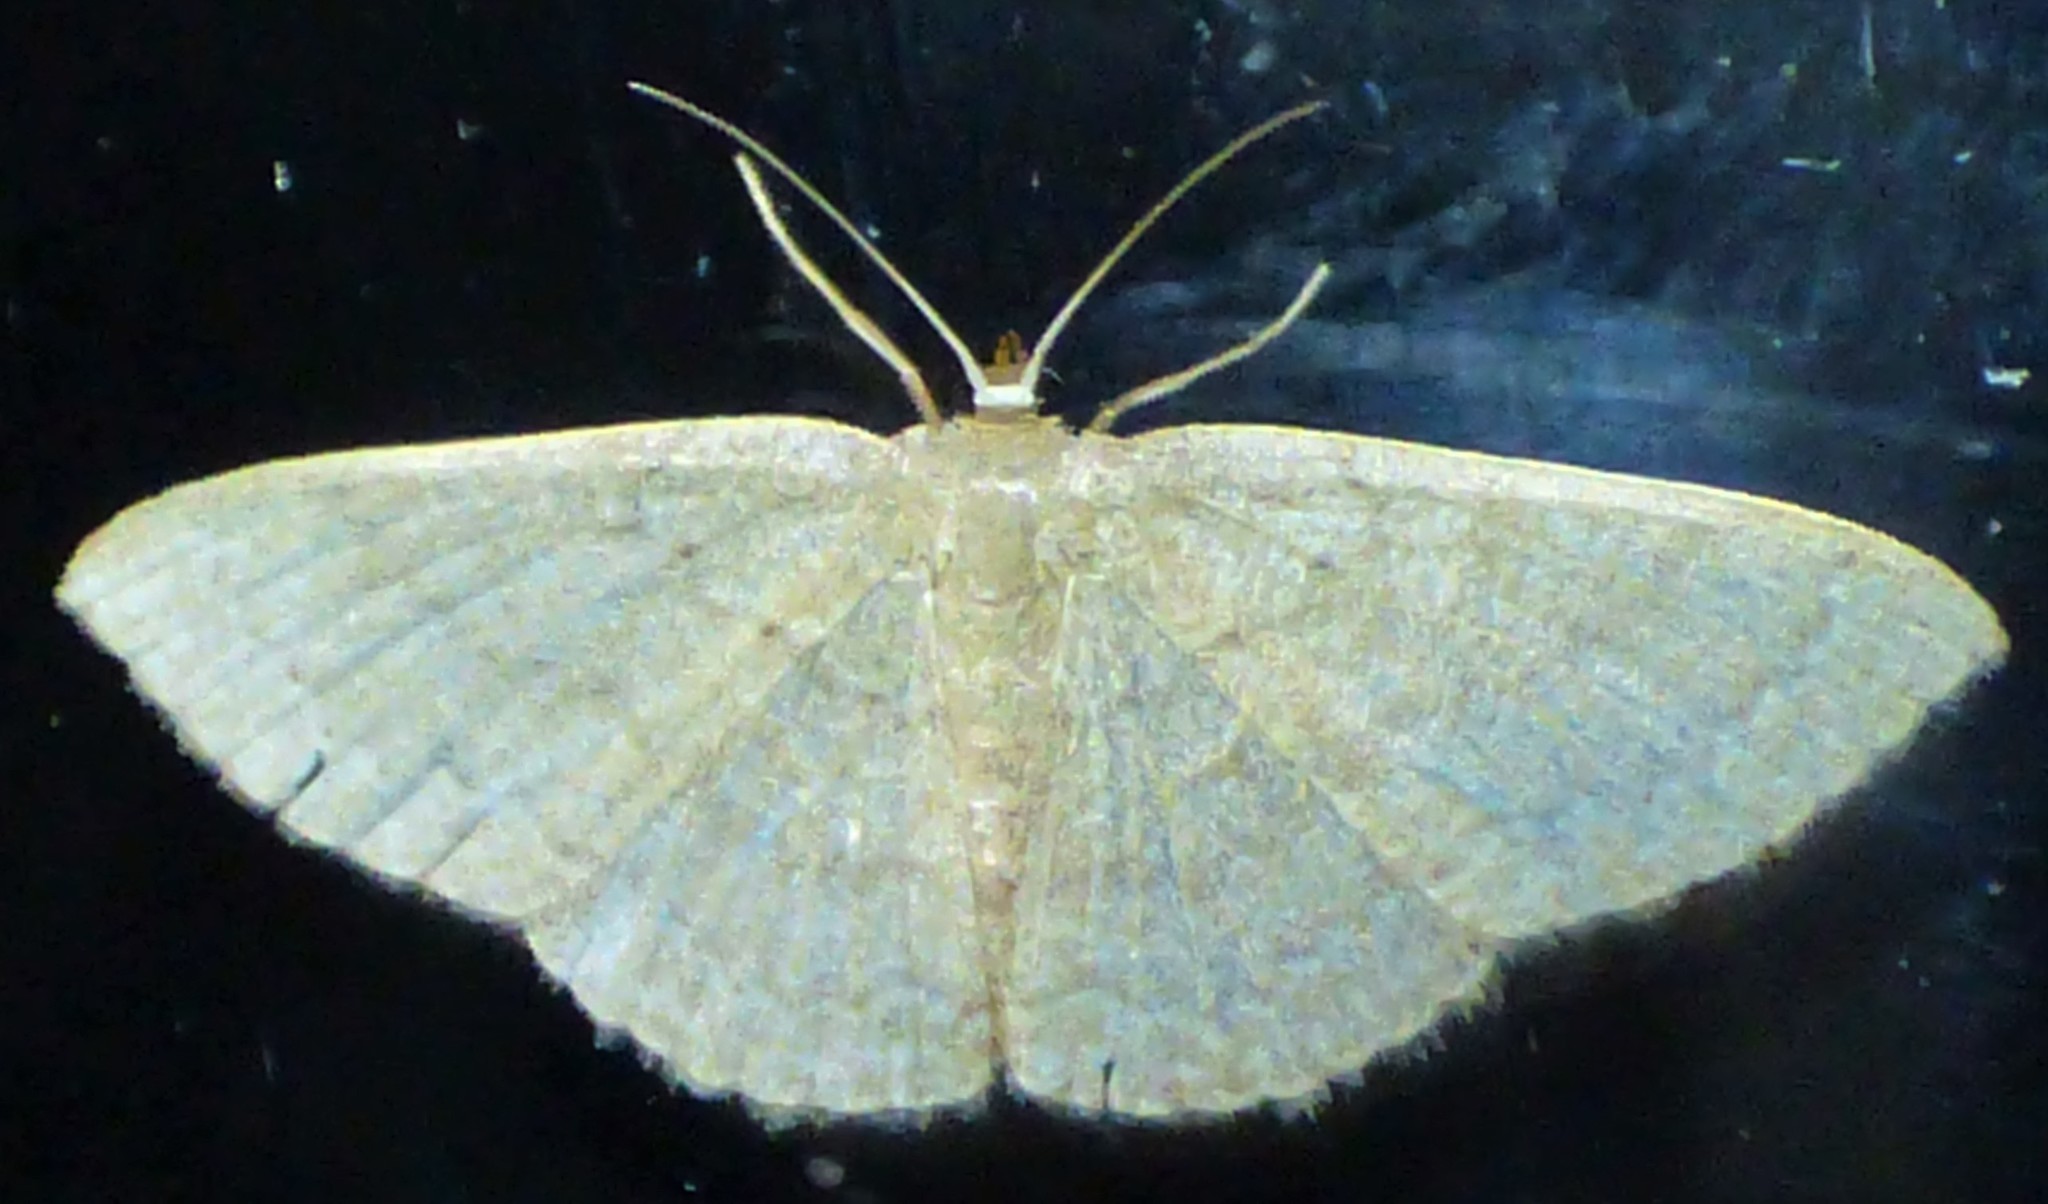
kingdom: Animalia
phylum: Arthropoda
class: Insecta
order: Lepidoptera
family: Geometridae
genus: Pleuroprucha
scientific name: Pleuroprucha insulsaria
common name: Common tan wave
